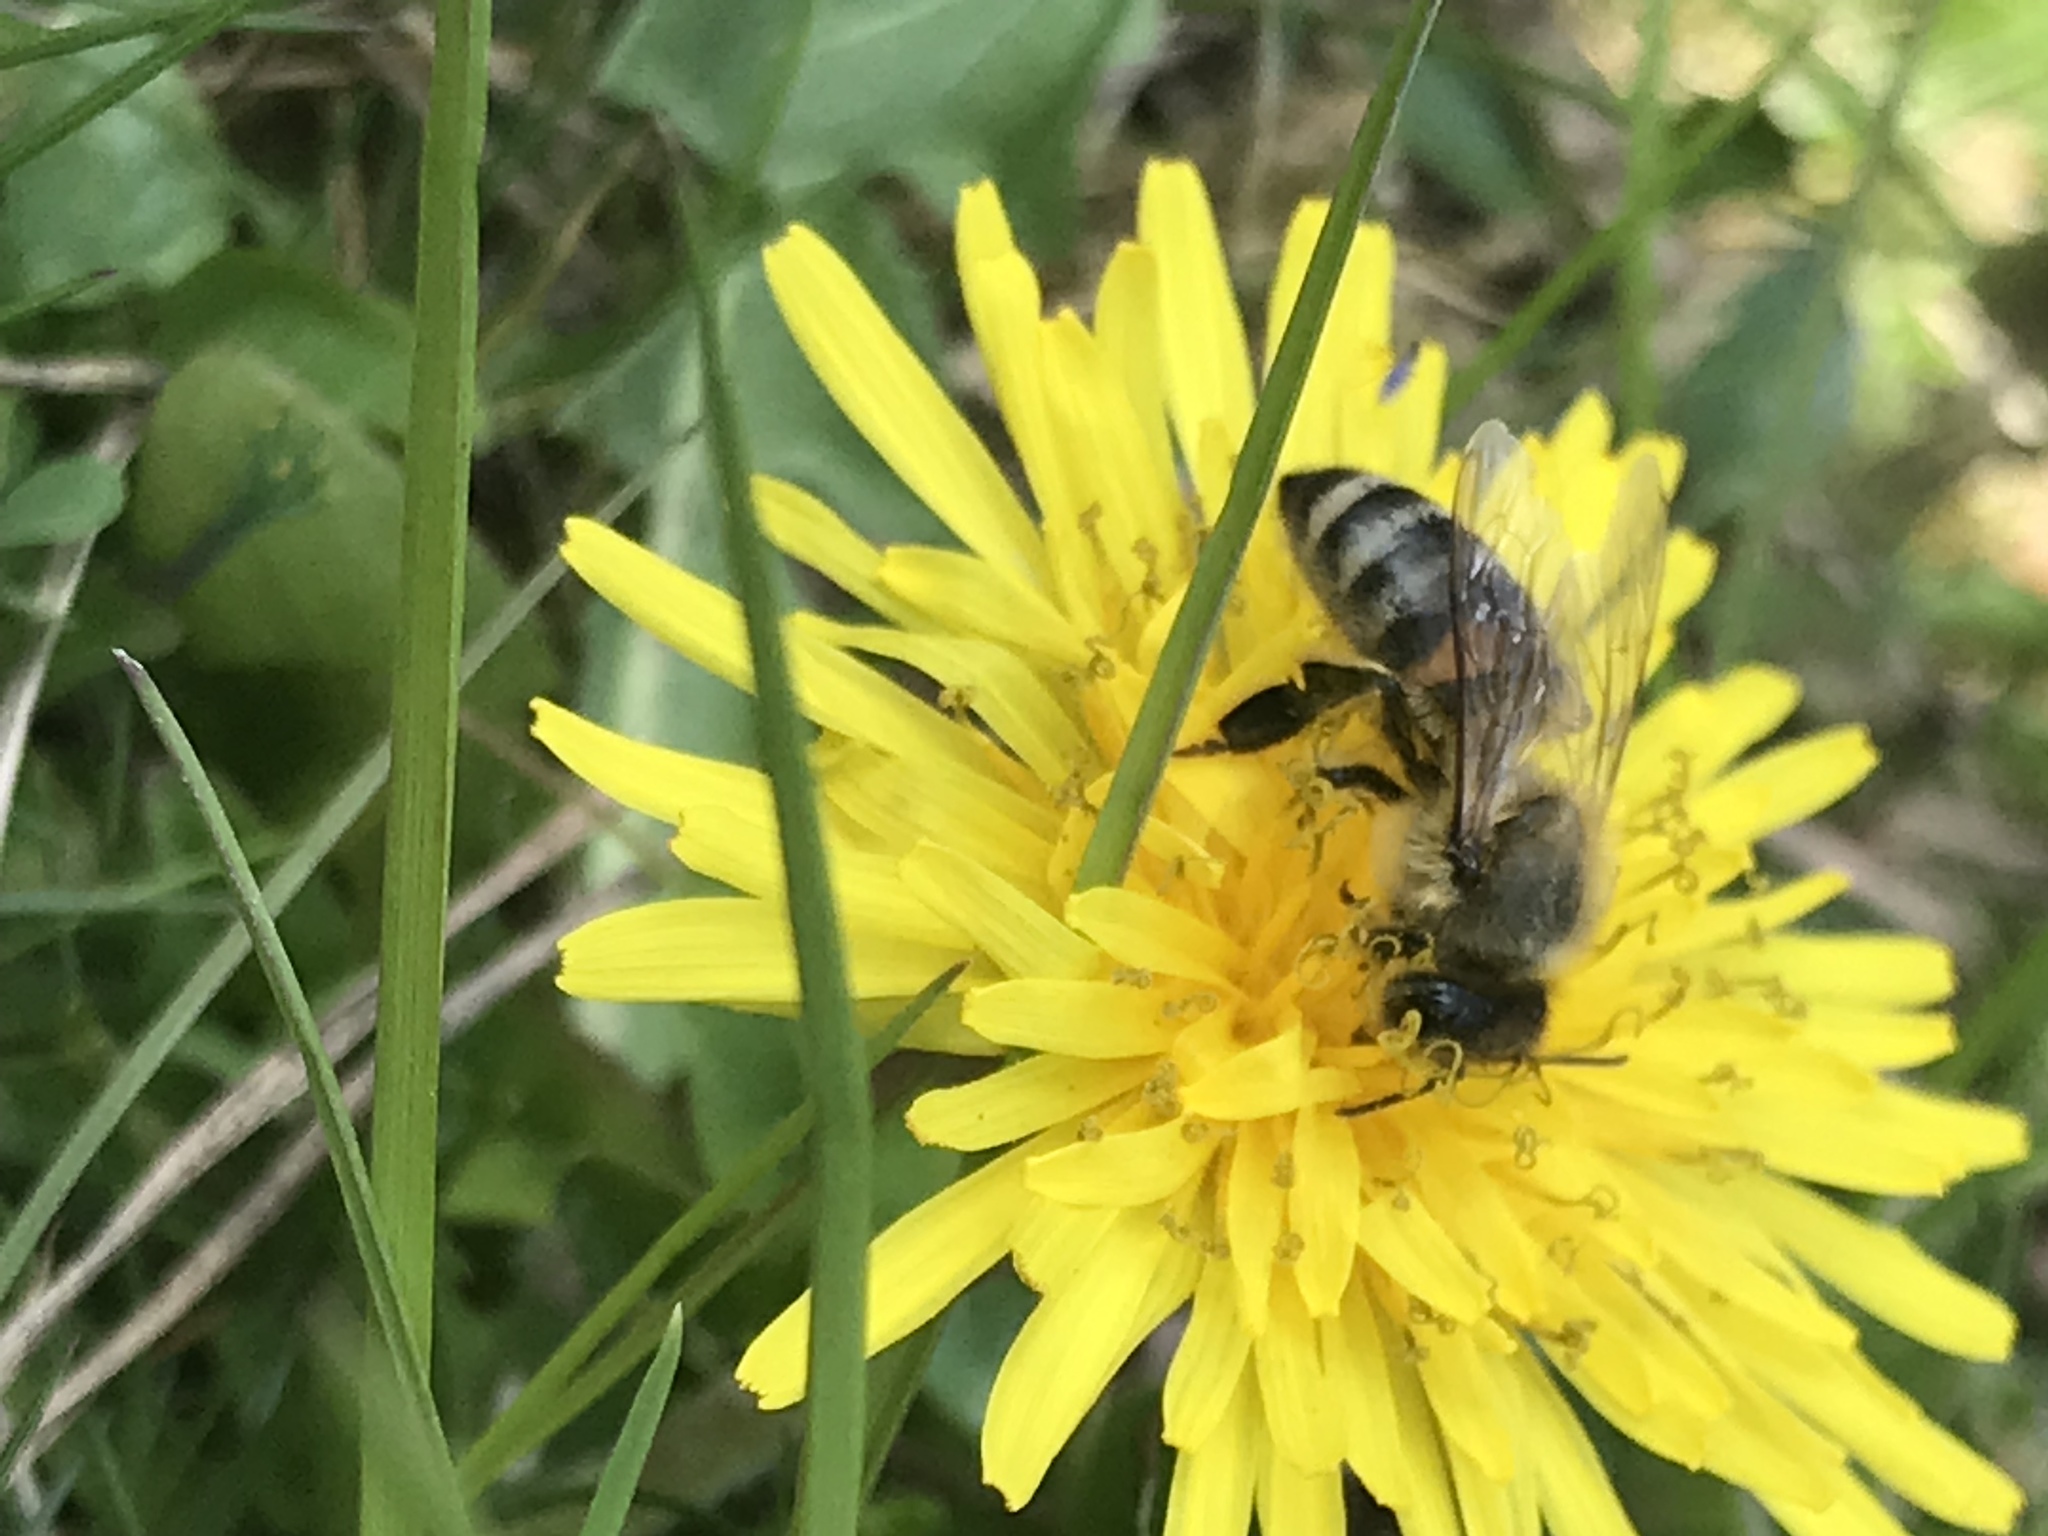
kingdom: Animalia
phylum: Arthropoda
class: Insecta
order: Hymenoptera
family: Apidae
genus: Apis
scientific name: Apis mellifera
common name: Honey bee
